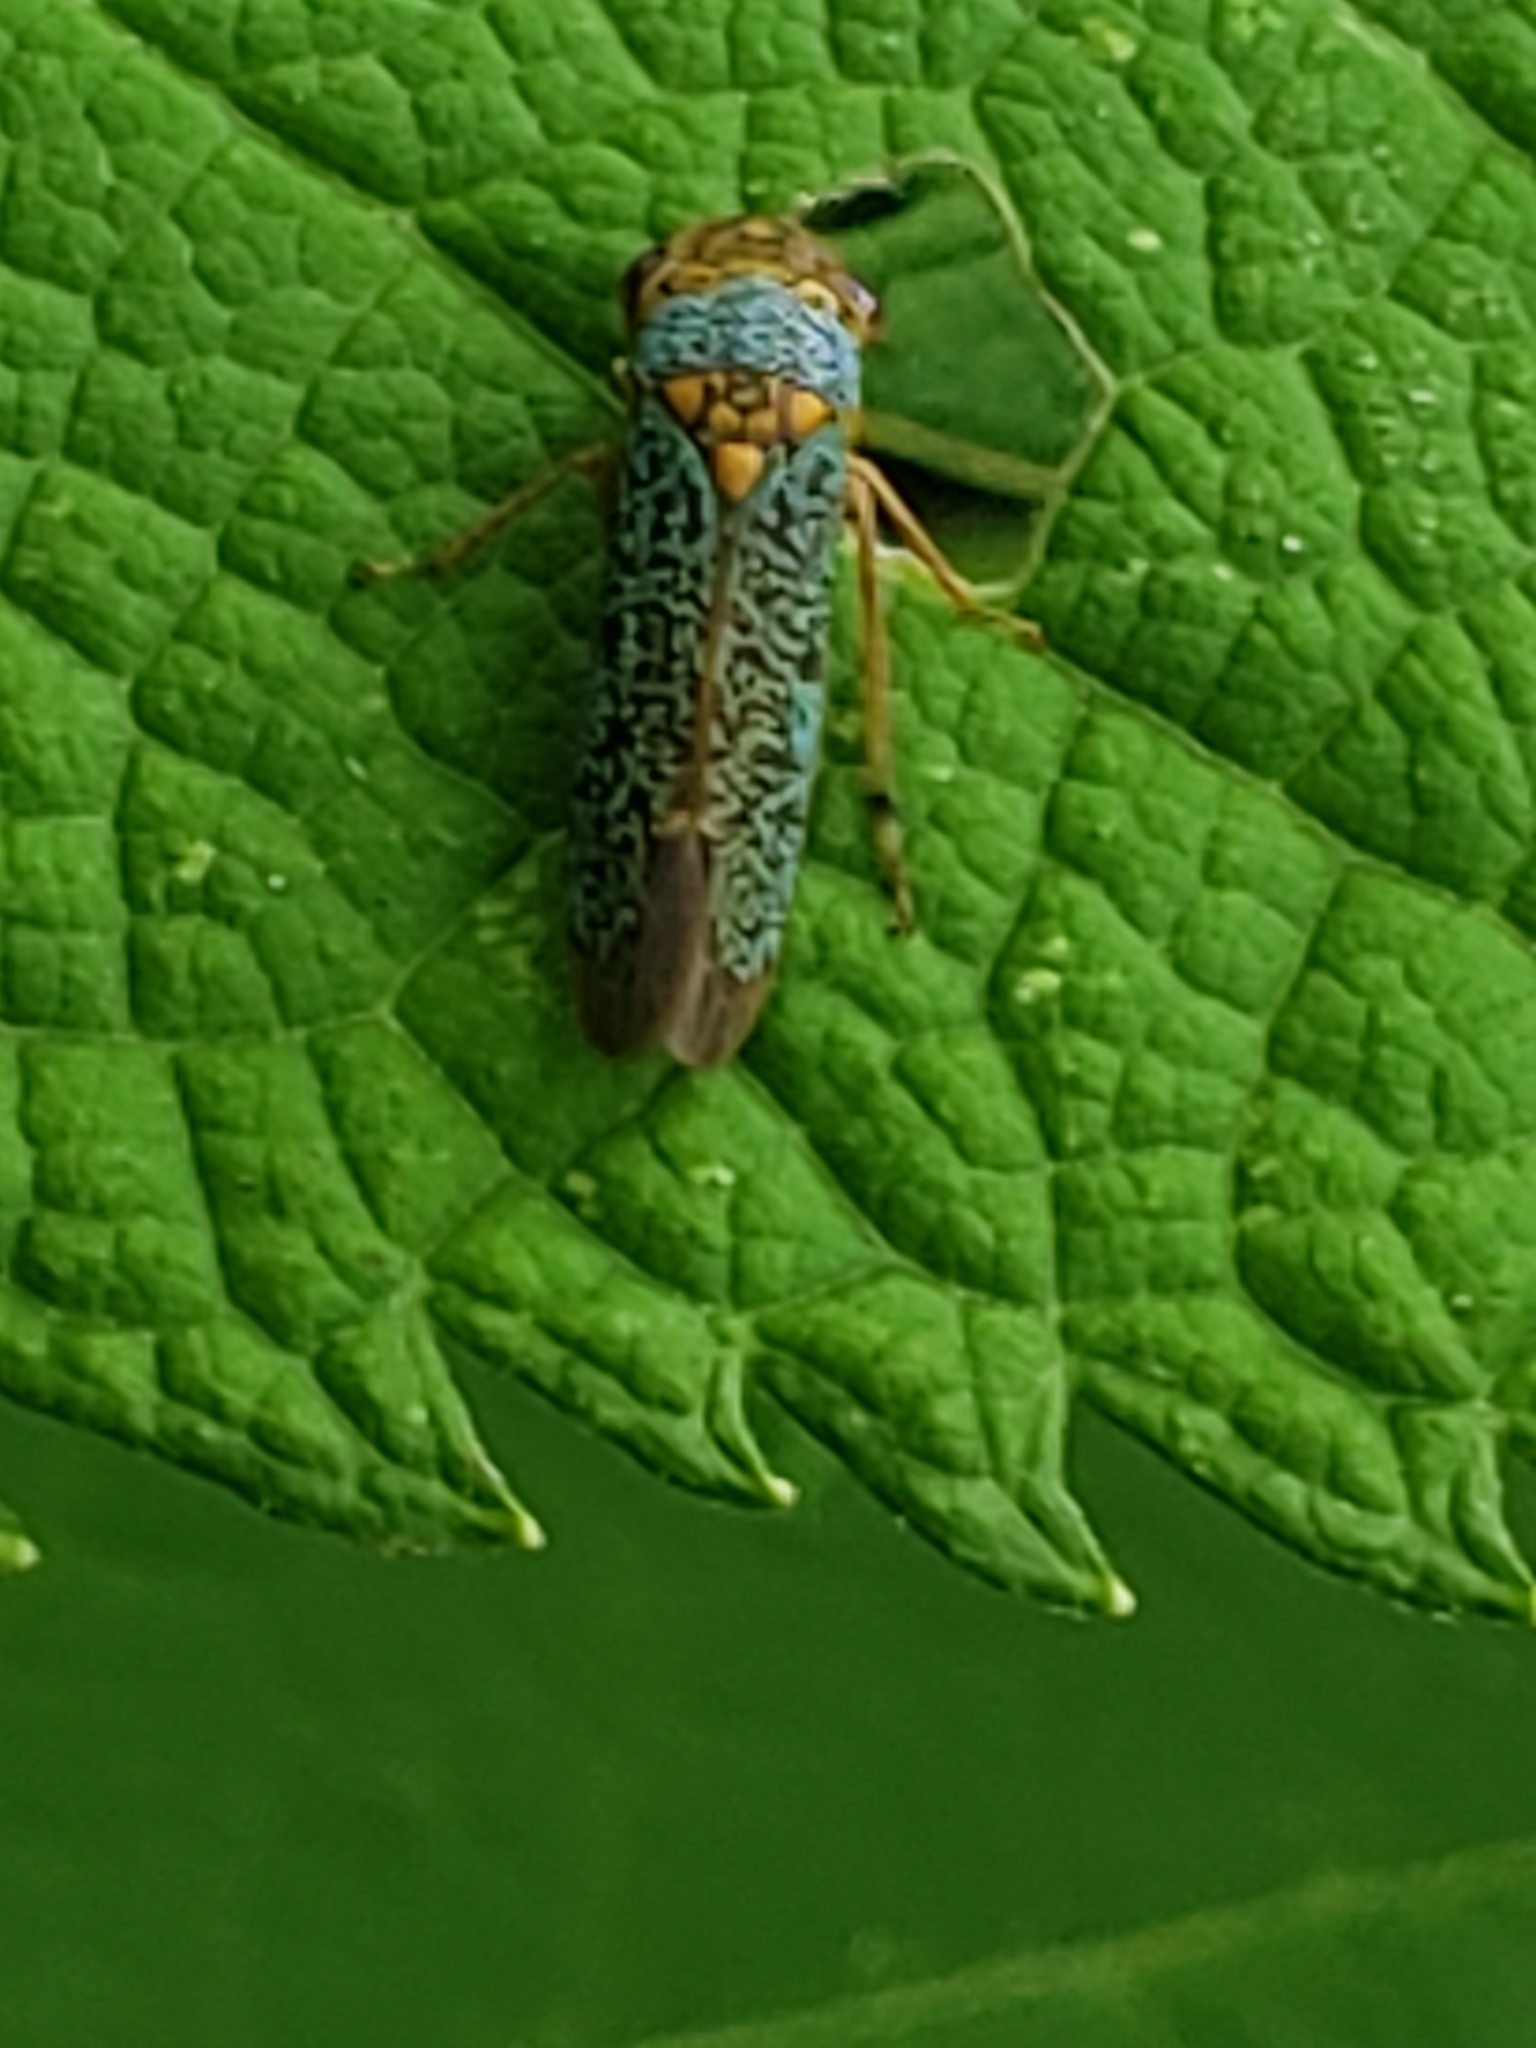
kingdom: Animalia
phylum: Arthropoda
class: Insecta
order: Hemiptera
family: Cicadellidae
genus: Oncometopia
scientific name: Oncometopia orbona
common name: Broad-headed sharpshooter
